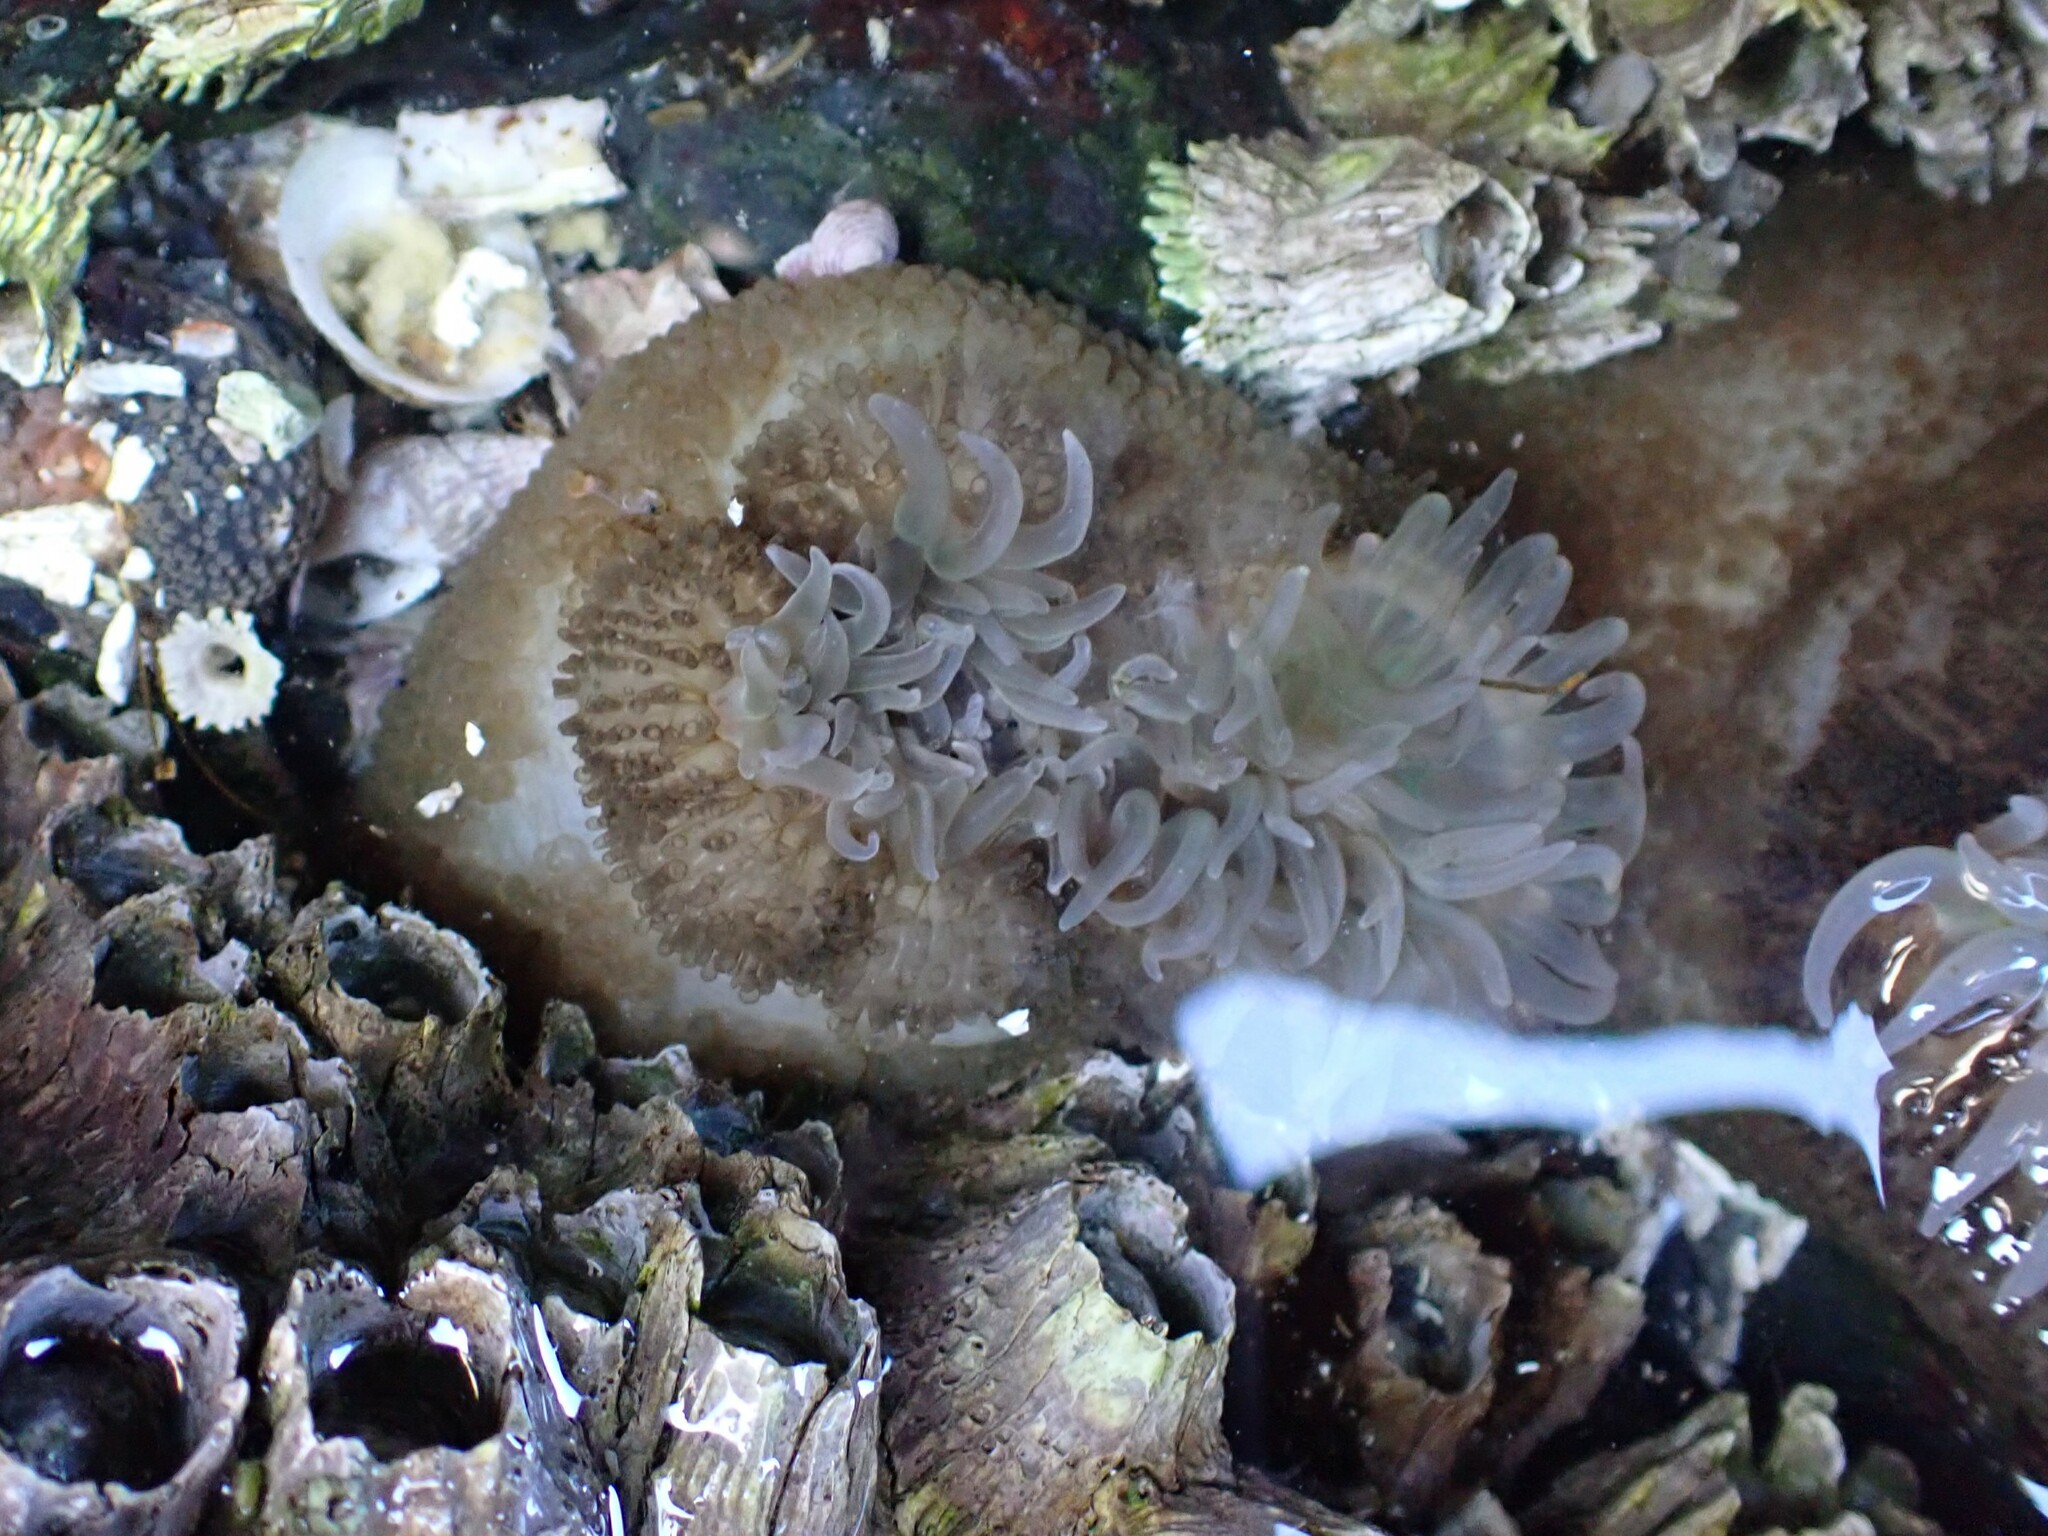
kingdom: Animalia
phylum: Cnidaria
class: Anthozoa
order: Actiniaria
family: Actiniidae
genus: Anthopleura
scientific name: Anthopleura xanthogrammica
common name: Giant green anemone
